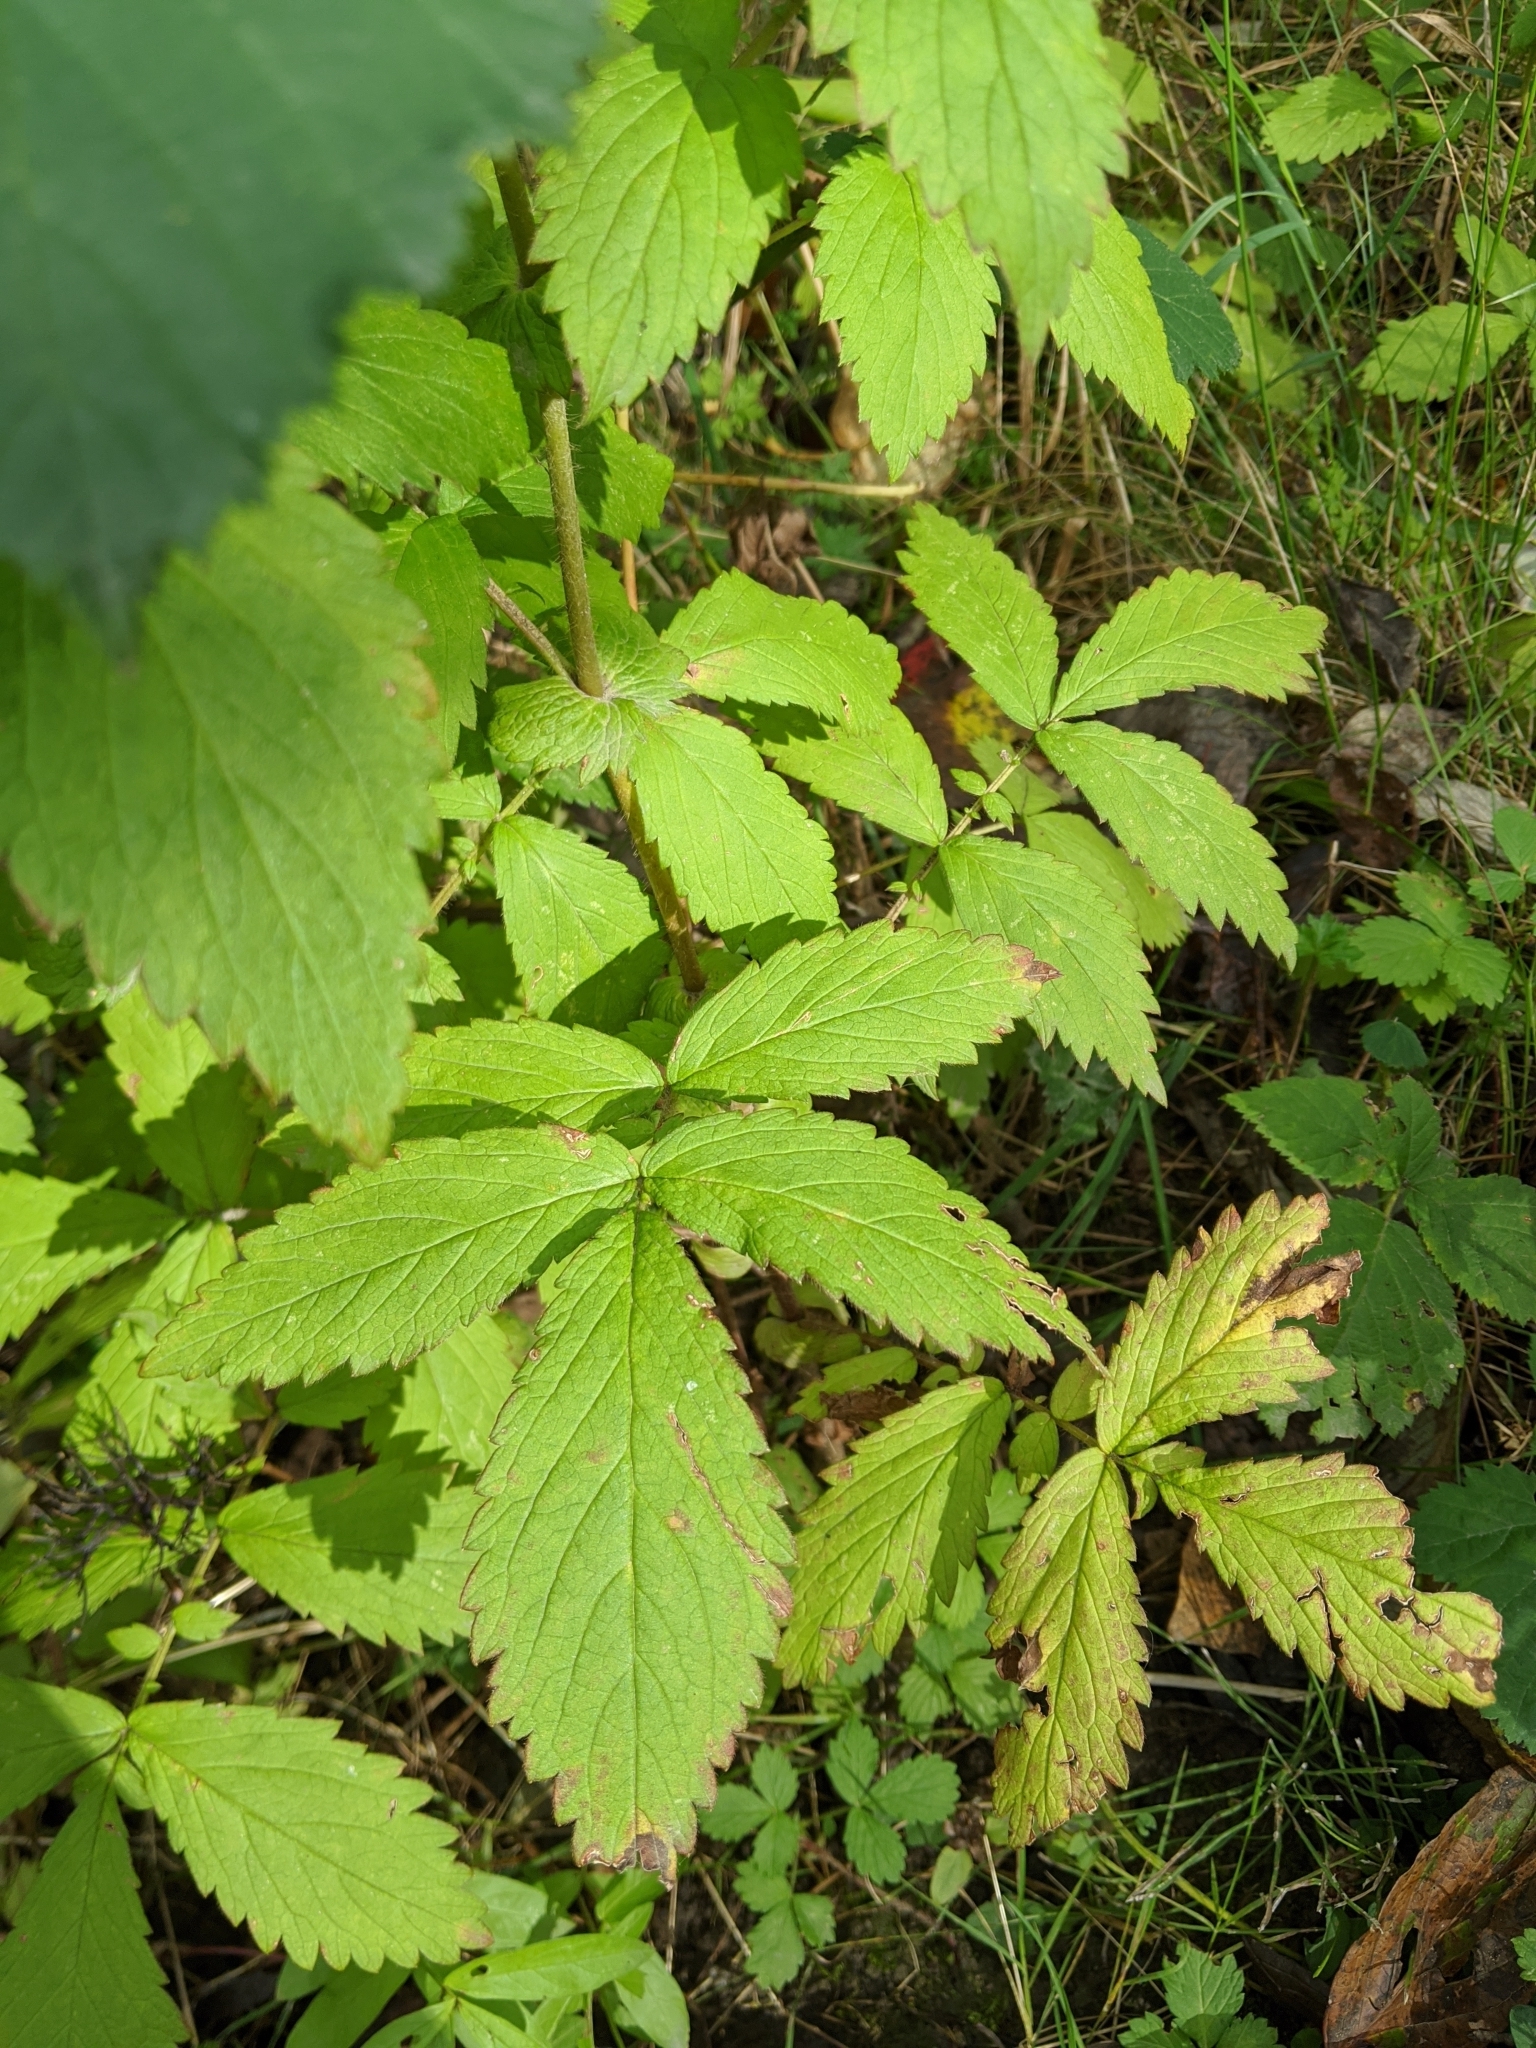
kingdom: Plantae
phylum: Tracheophyta
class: Magnoliopsida
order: Rosales
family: Rosaceae
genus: Agrimonia
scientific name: Agrimonia gryposepala
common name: Common agrimony
